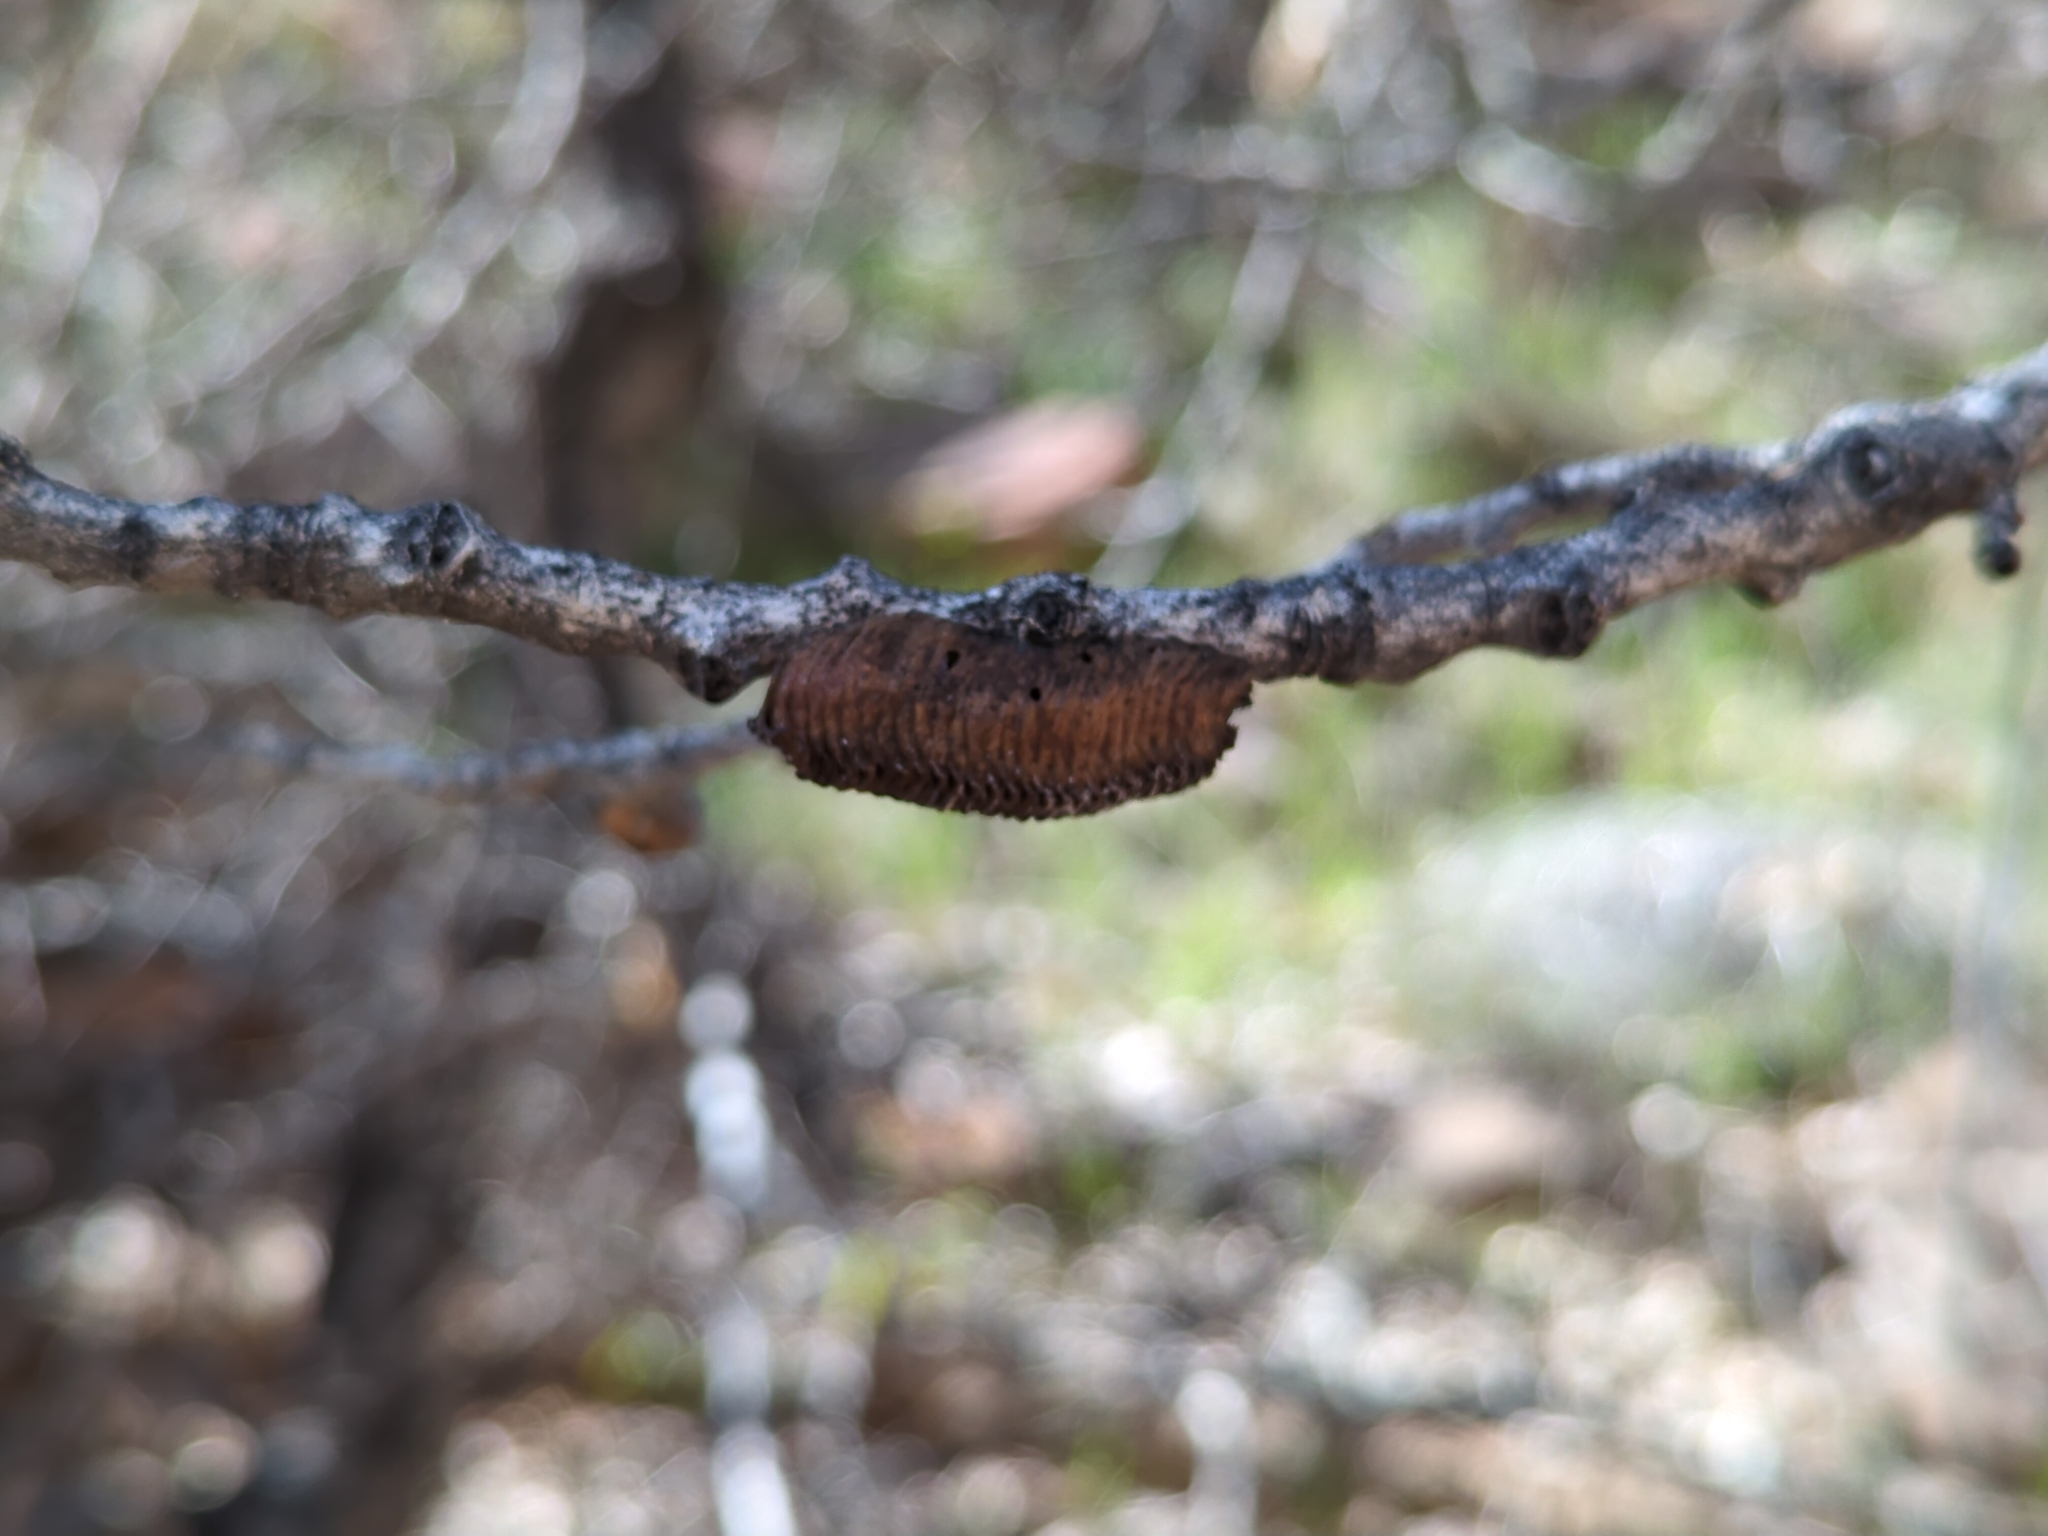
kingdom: Animalia
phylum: Arthropoda
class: Insecta
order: Mantodea
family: Mantidae
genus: Stagmomantis
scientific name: Stagmomantis
